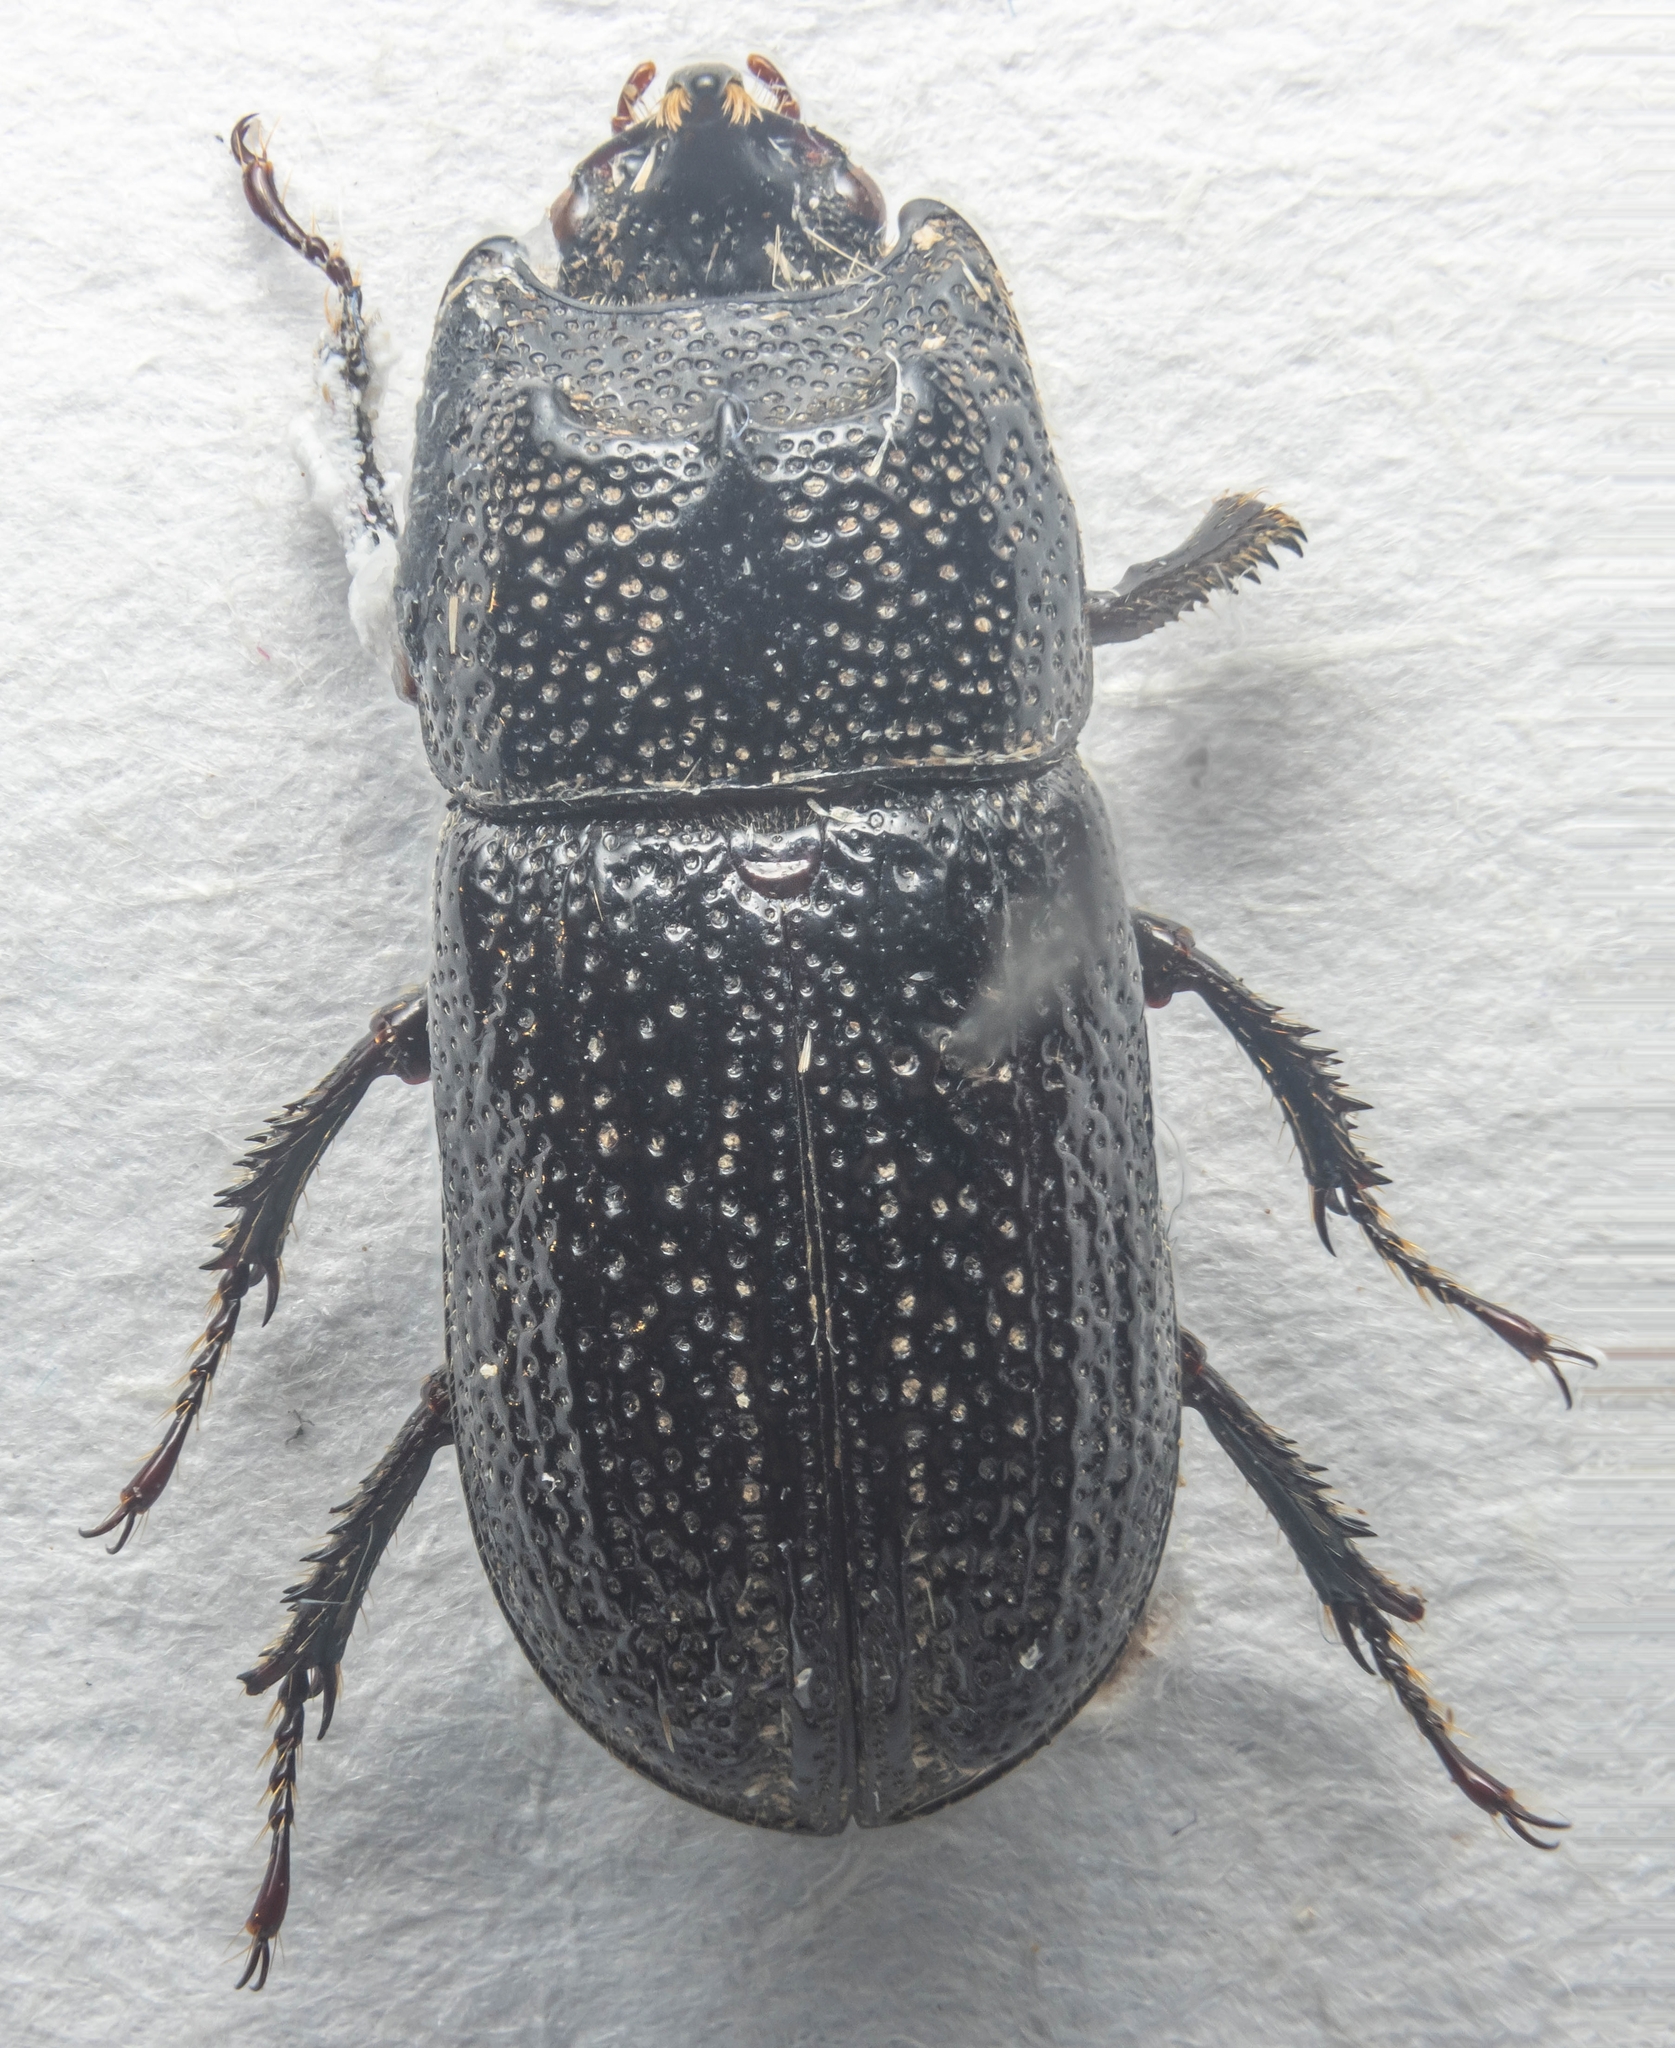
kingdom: Animalia
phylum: Arthropoda
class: Insecta
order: Coleoptera
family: Lucanidae
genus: Sinodendron
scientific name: Sinodendron cylindricum
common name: Rhinoceros beetle
